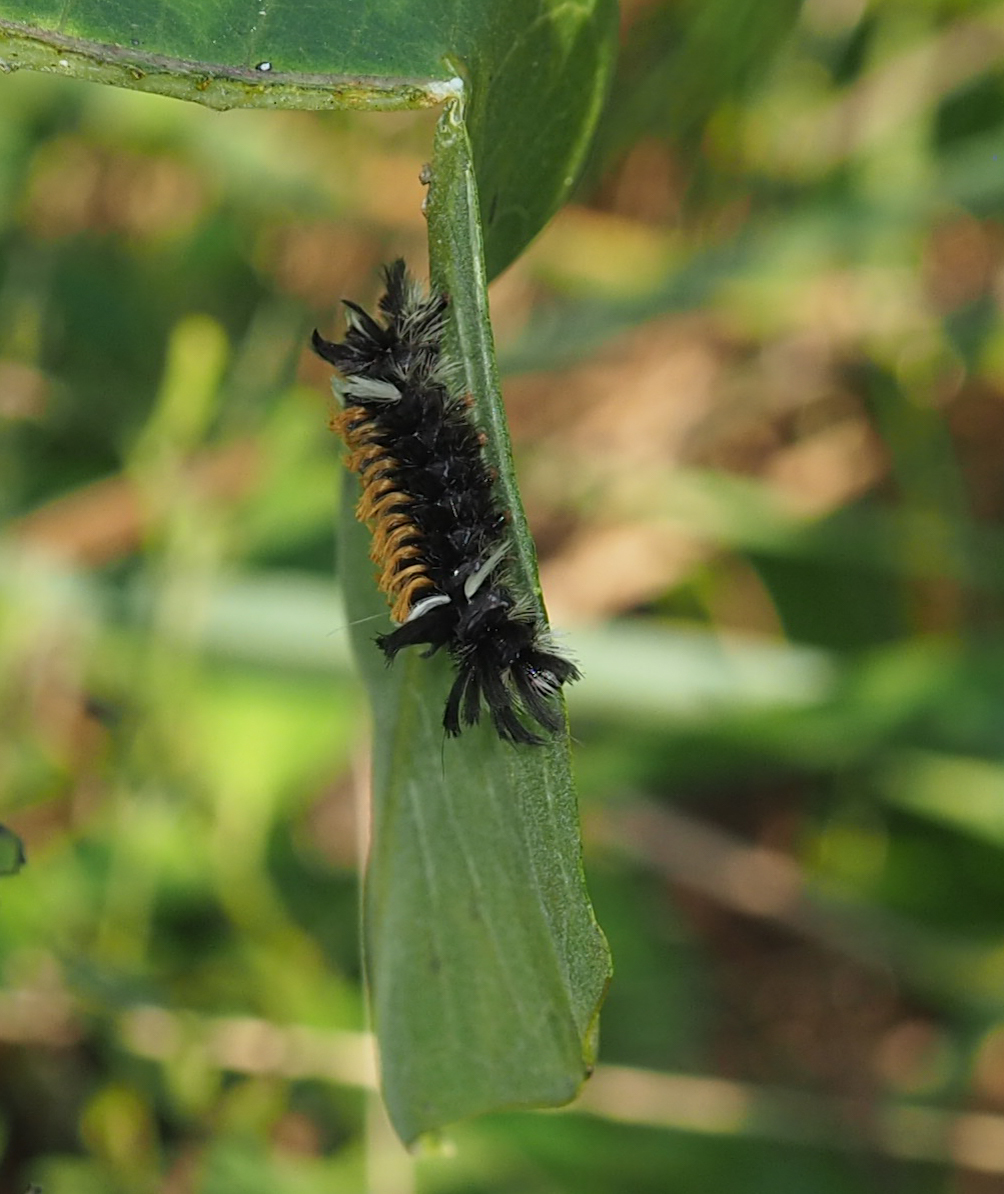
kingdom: Animalia
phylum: Arthropoda
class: Insecta
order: Lepidoptera
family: Erebidae
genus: Euchaetes
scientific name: Euchaetes egle
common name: Milkweed tussock moth
